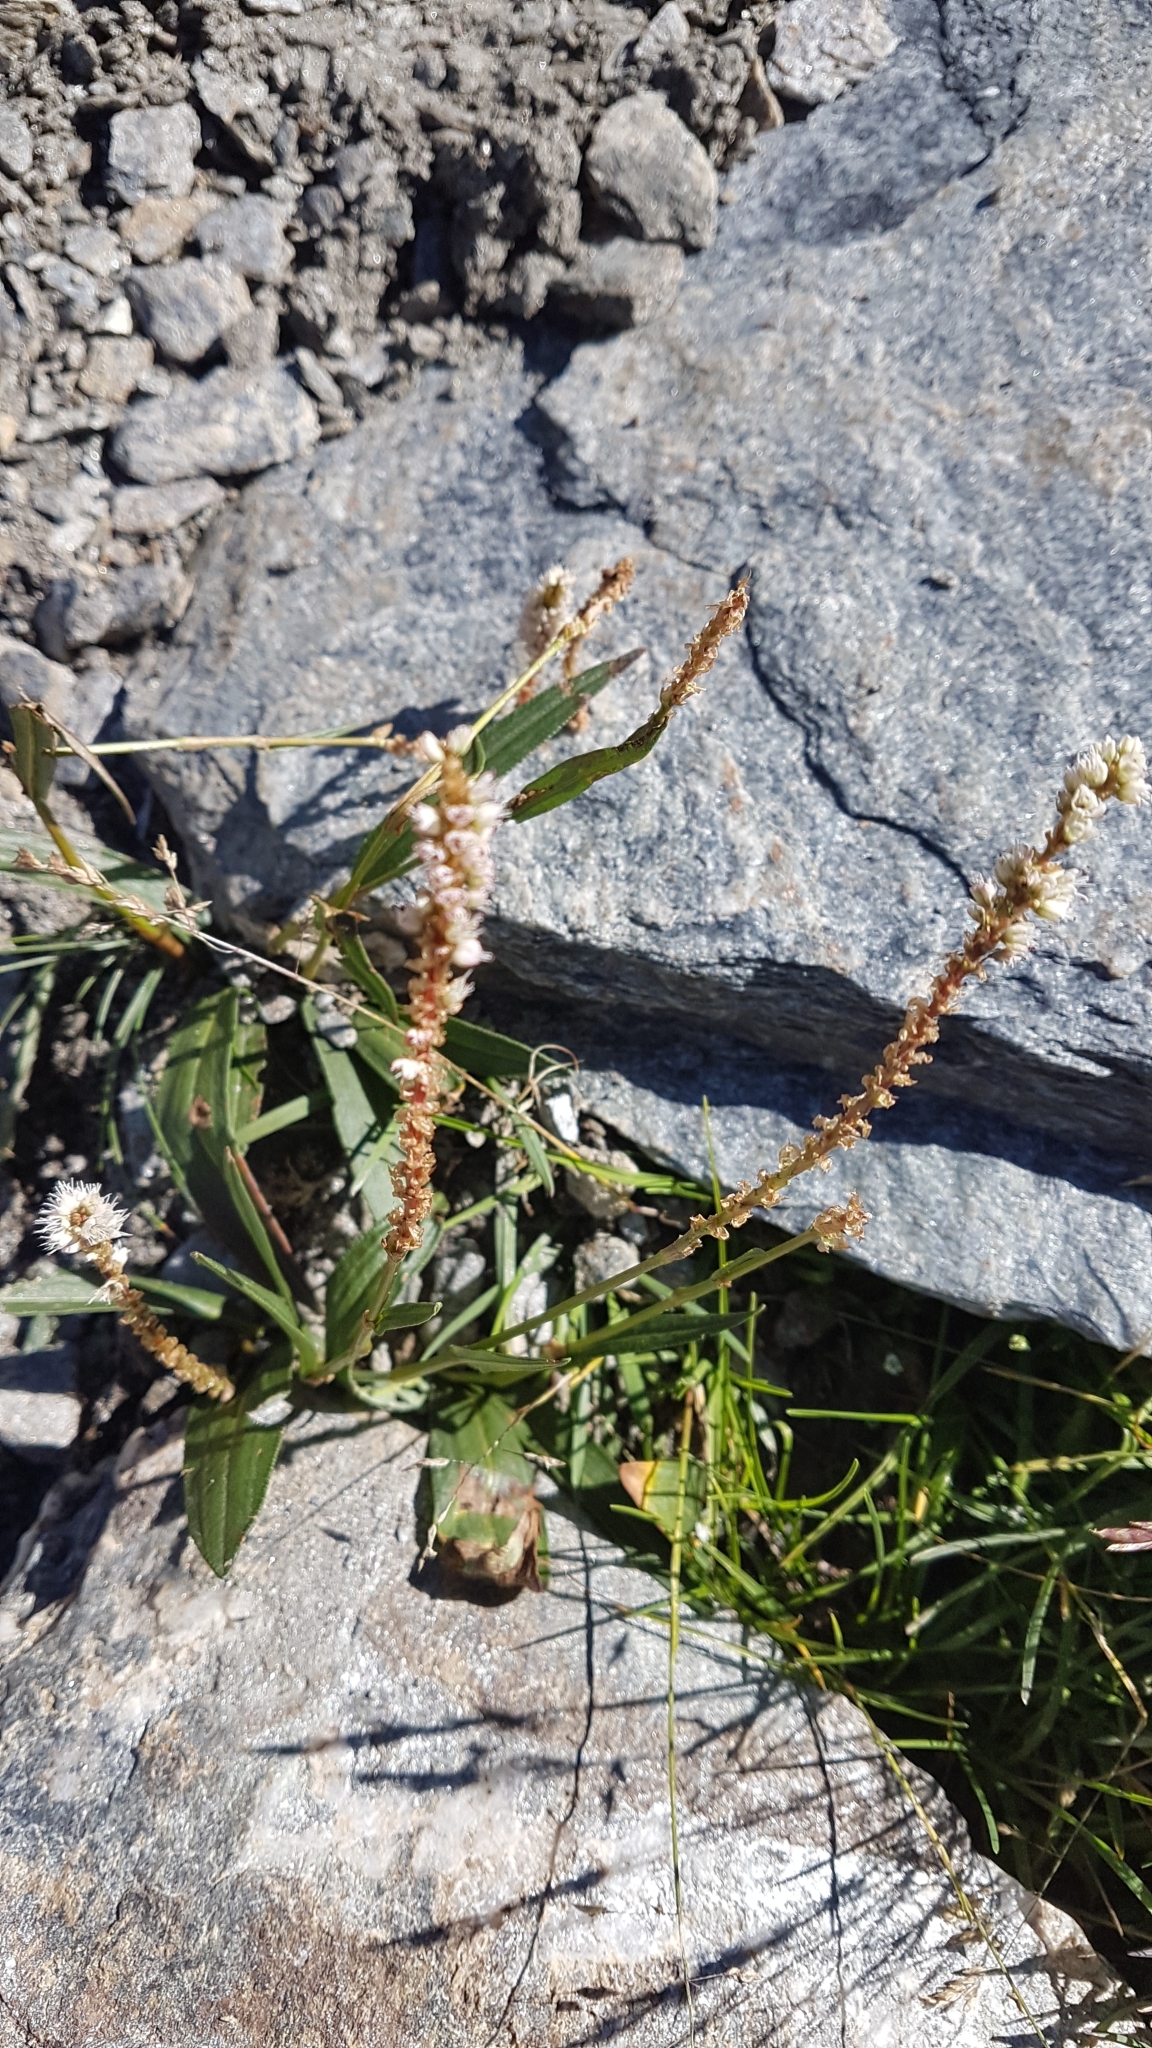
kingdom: Plantae
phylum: Tracheophyta
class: Magnoliopsida
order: Caryophyllales
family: Polygonaceae
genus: Bistorta
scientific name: Bistorta vivipara
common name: Alpine bistort
